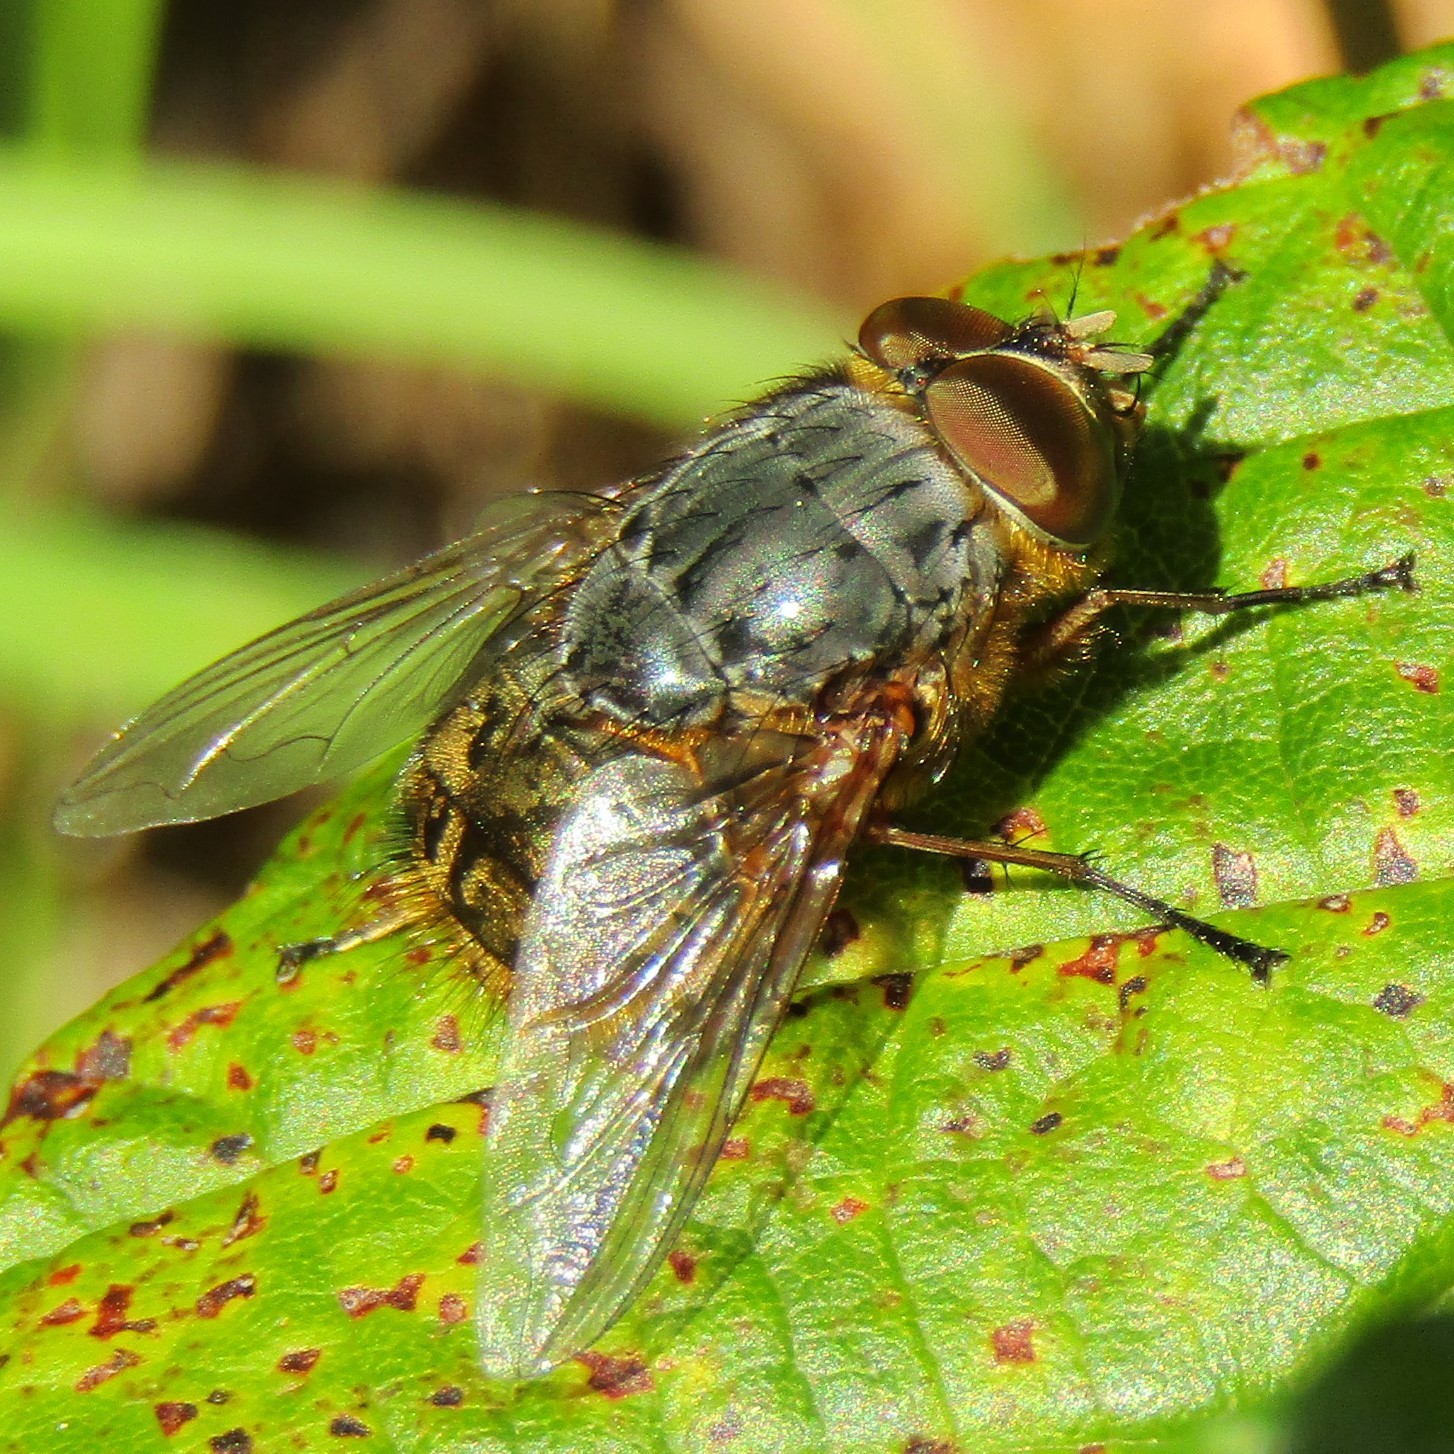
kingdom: Animalia
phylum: Arthropoda
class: Insecta
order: Diptera
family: Calliphoridae
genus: Calliphora
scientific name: Calliphora stygia
